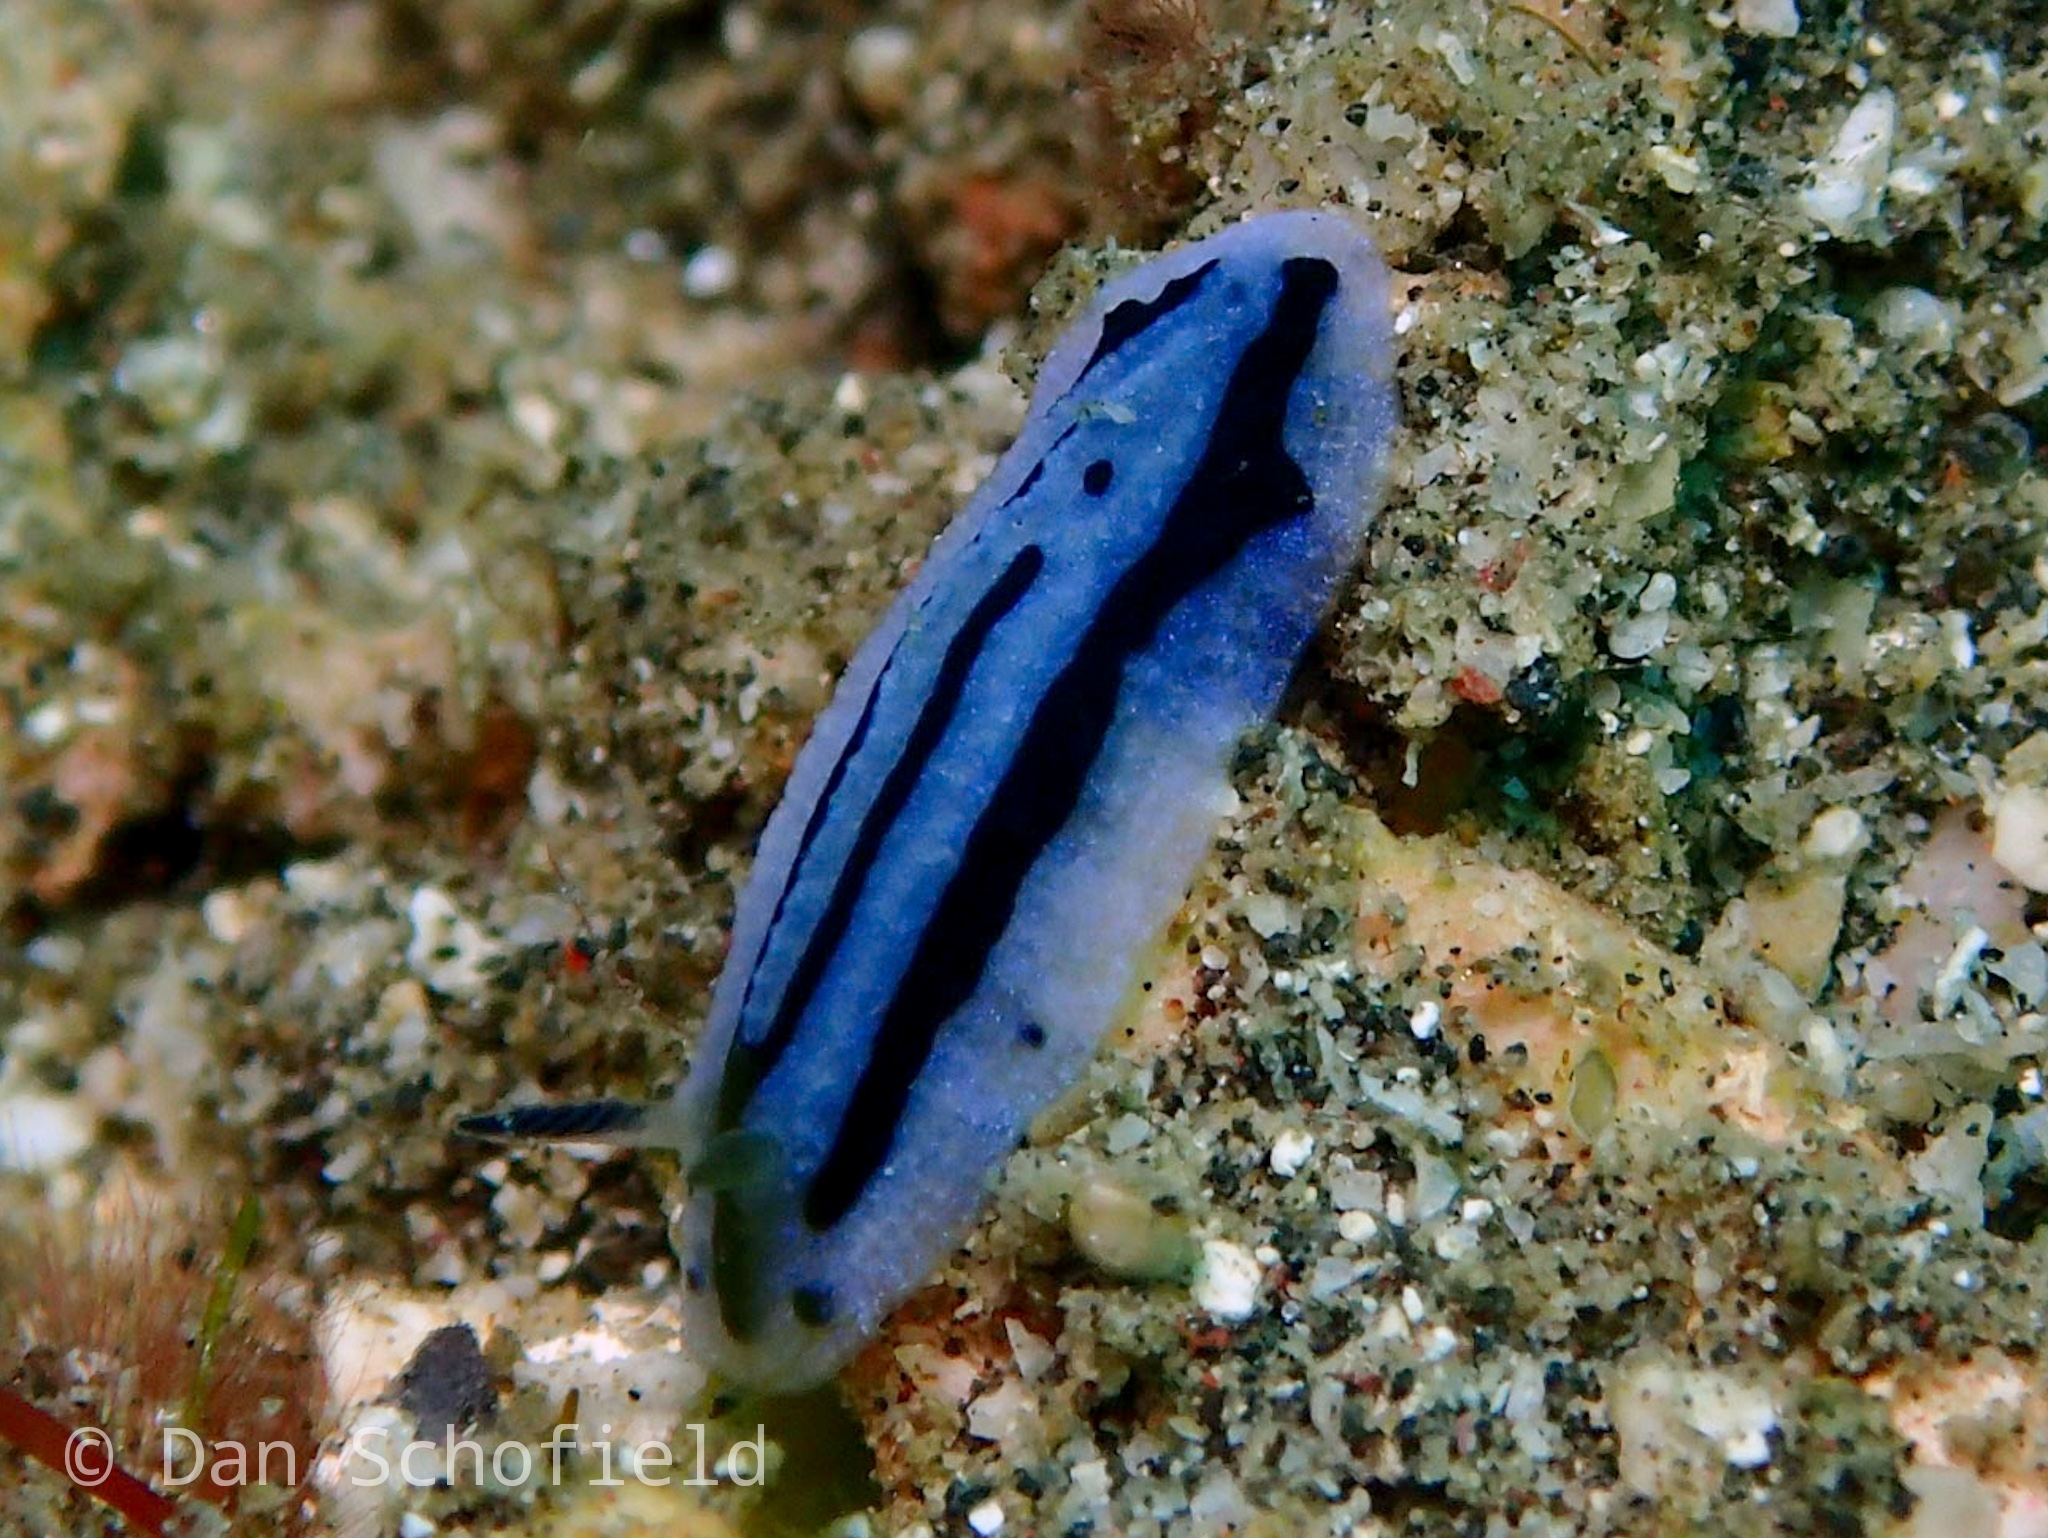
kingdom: Animalia
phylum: Mollusca
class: Gastropoda
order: Nudibranchia
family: Phyllidiidae
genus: Phyllidiopsis
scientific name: Phyllidiopsis annae
